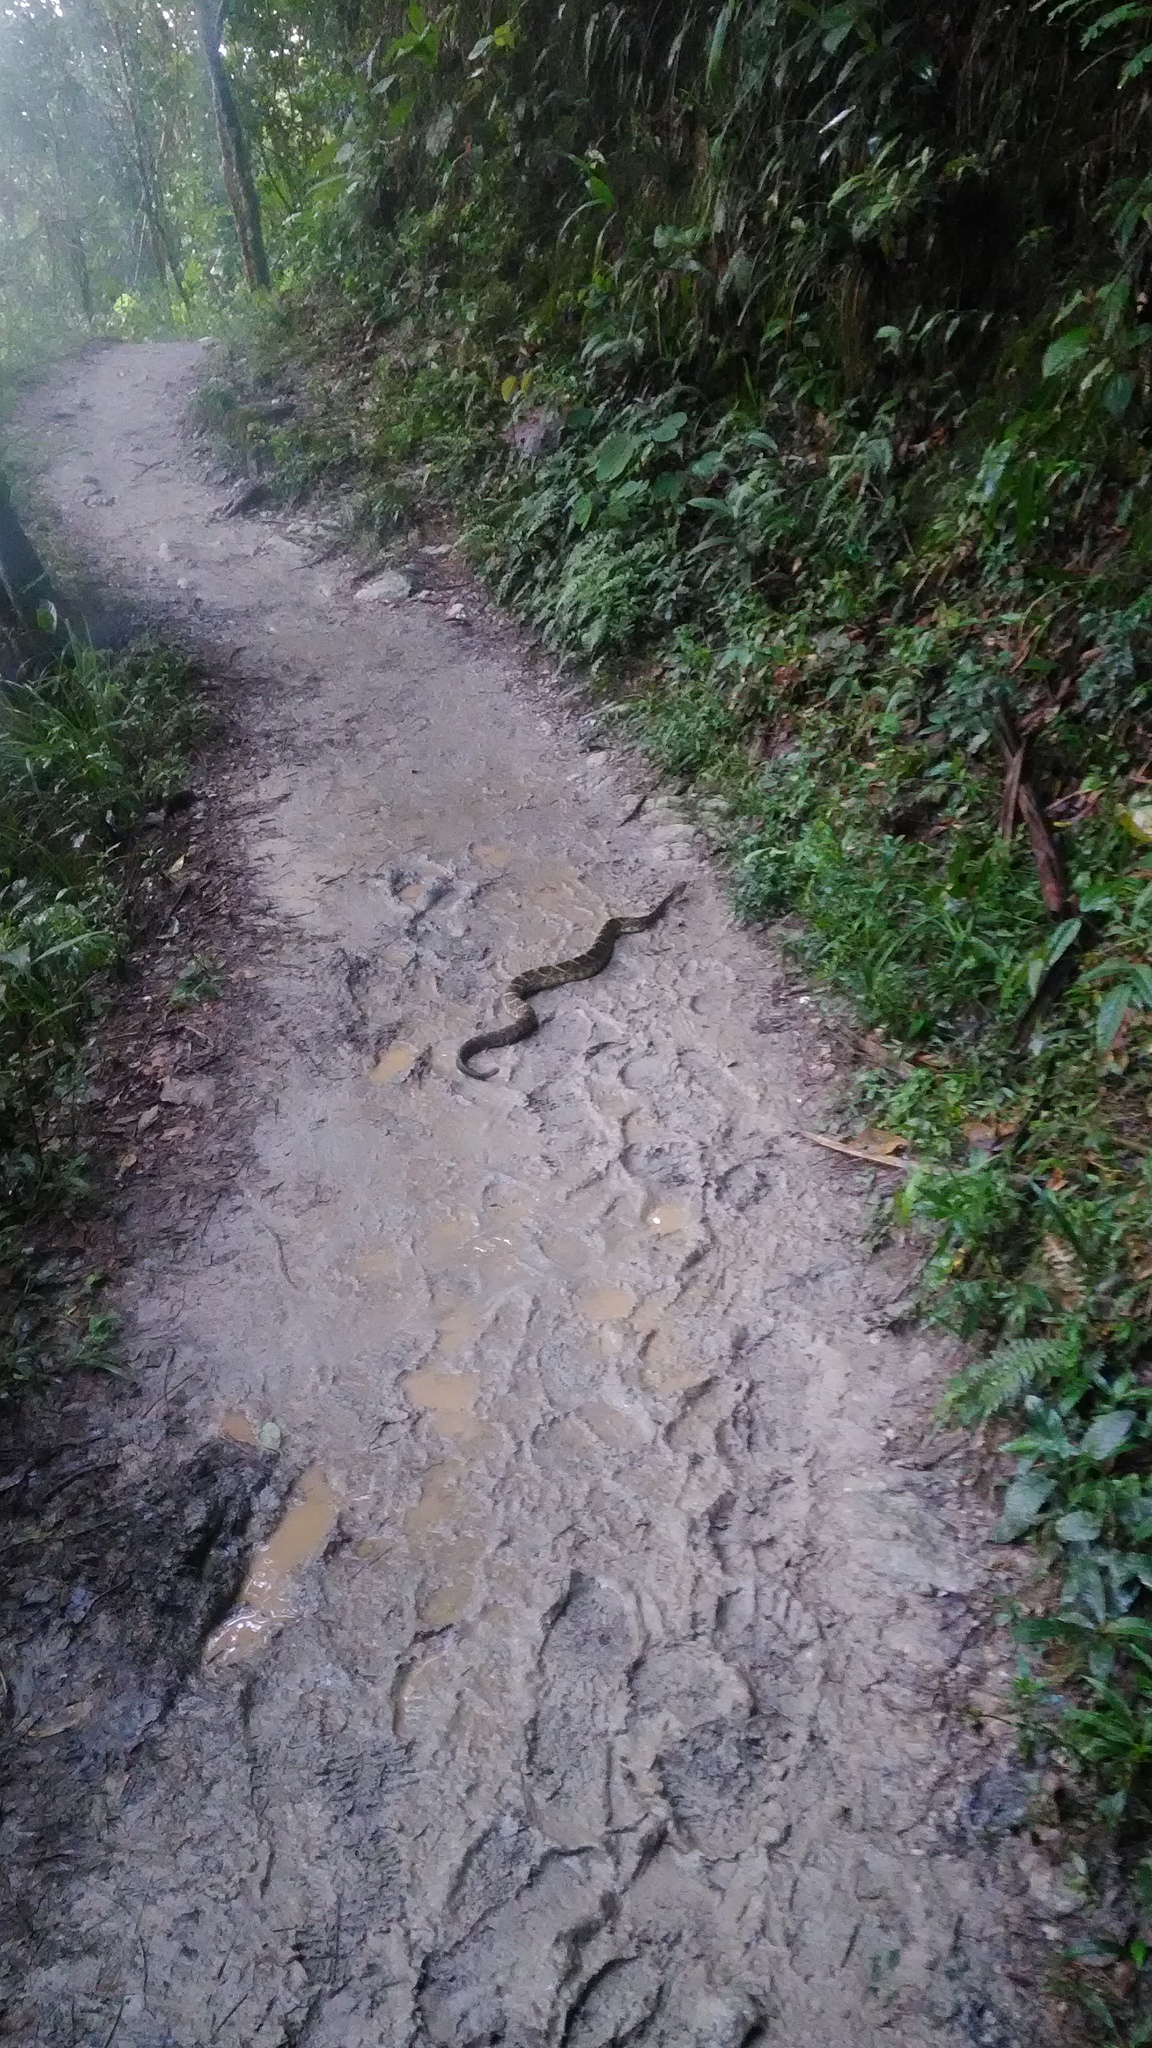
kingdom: Animalia
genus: Crotalus
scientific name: Crotalus durissus
